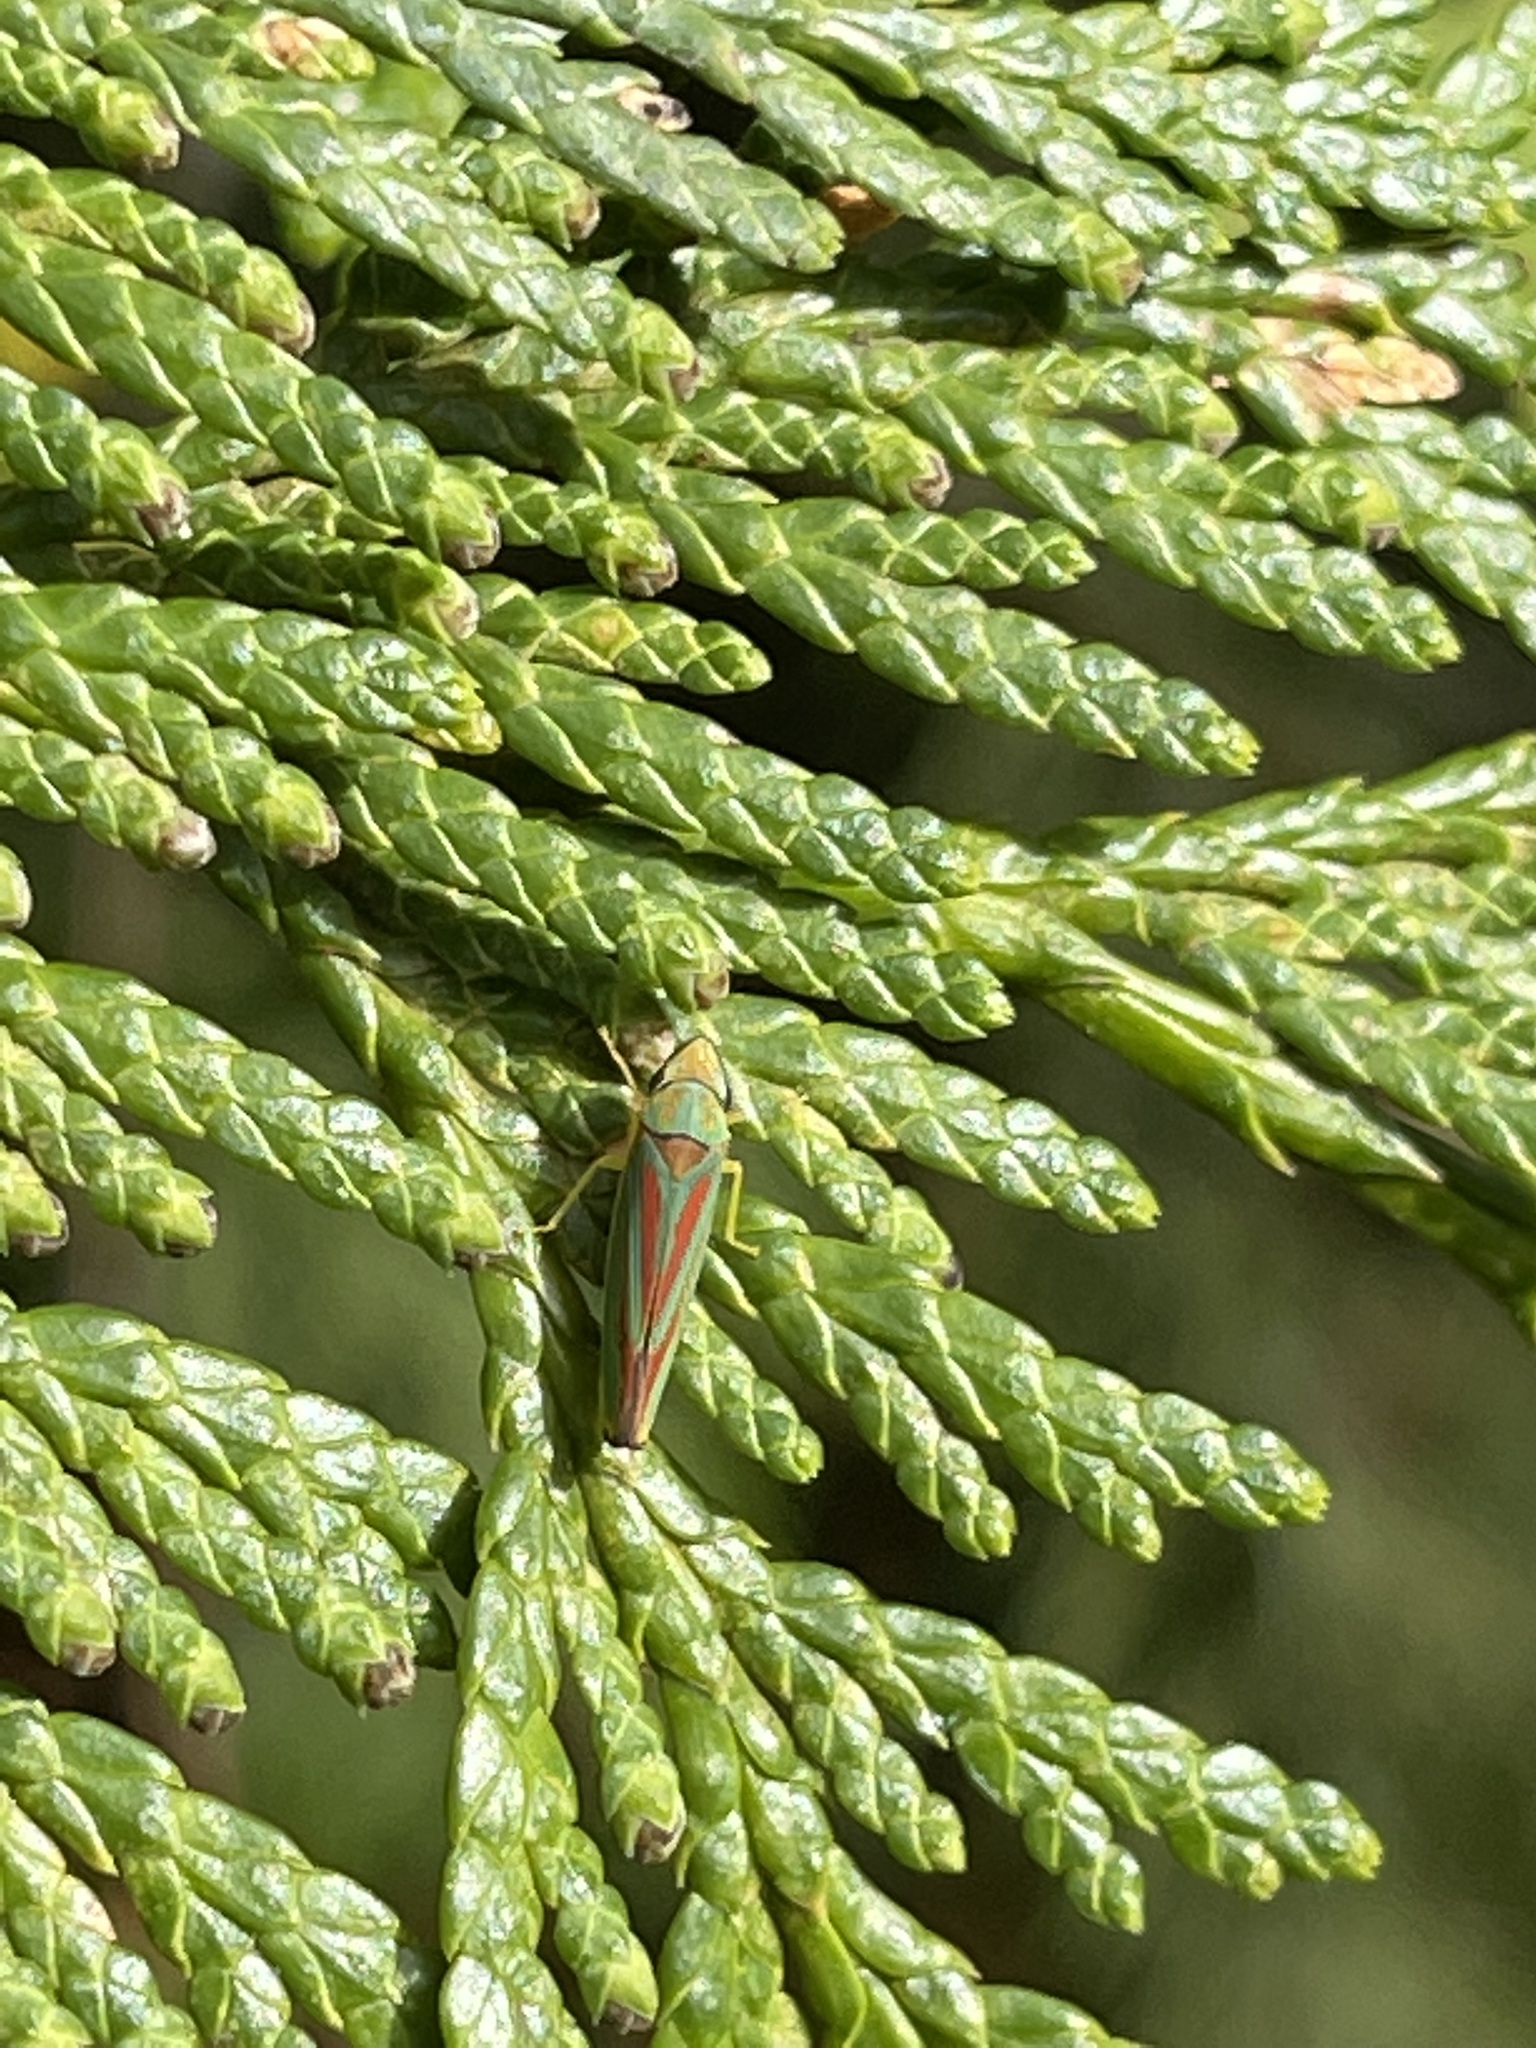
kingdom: Animalia
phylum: Arthropoda
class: Insecta
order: Hemiptera
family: Cicadellidae
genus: Graphocephala
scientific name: Graphocephala fennahi
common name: Rhododendron leafhopper
